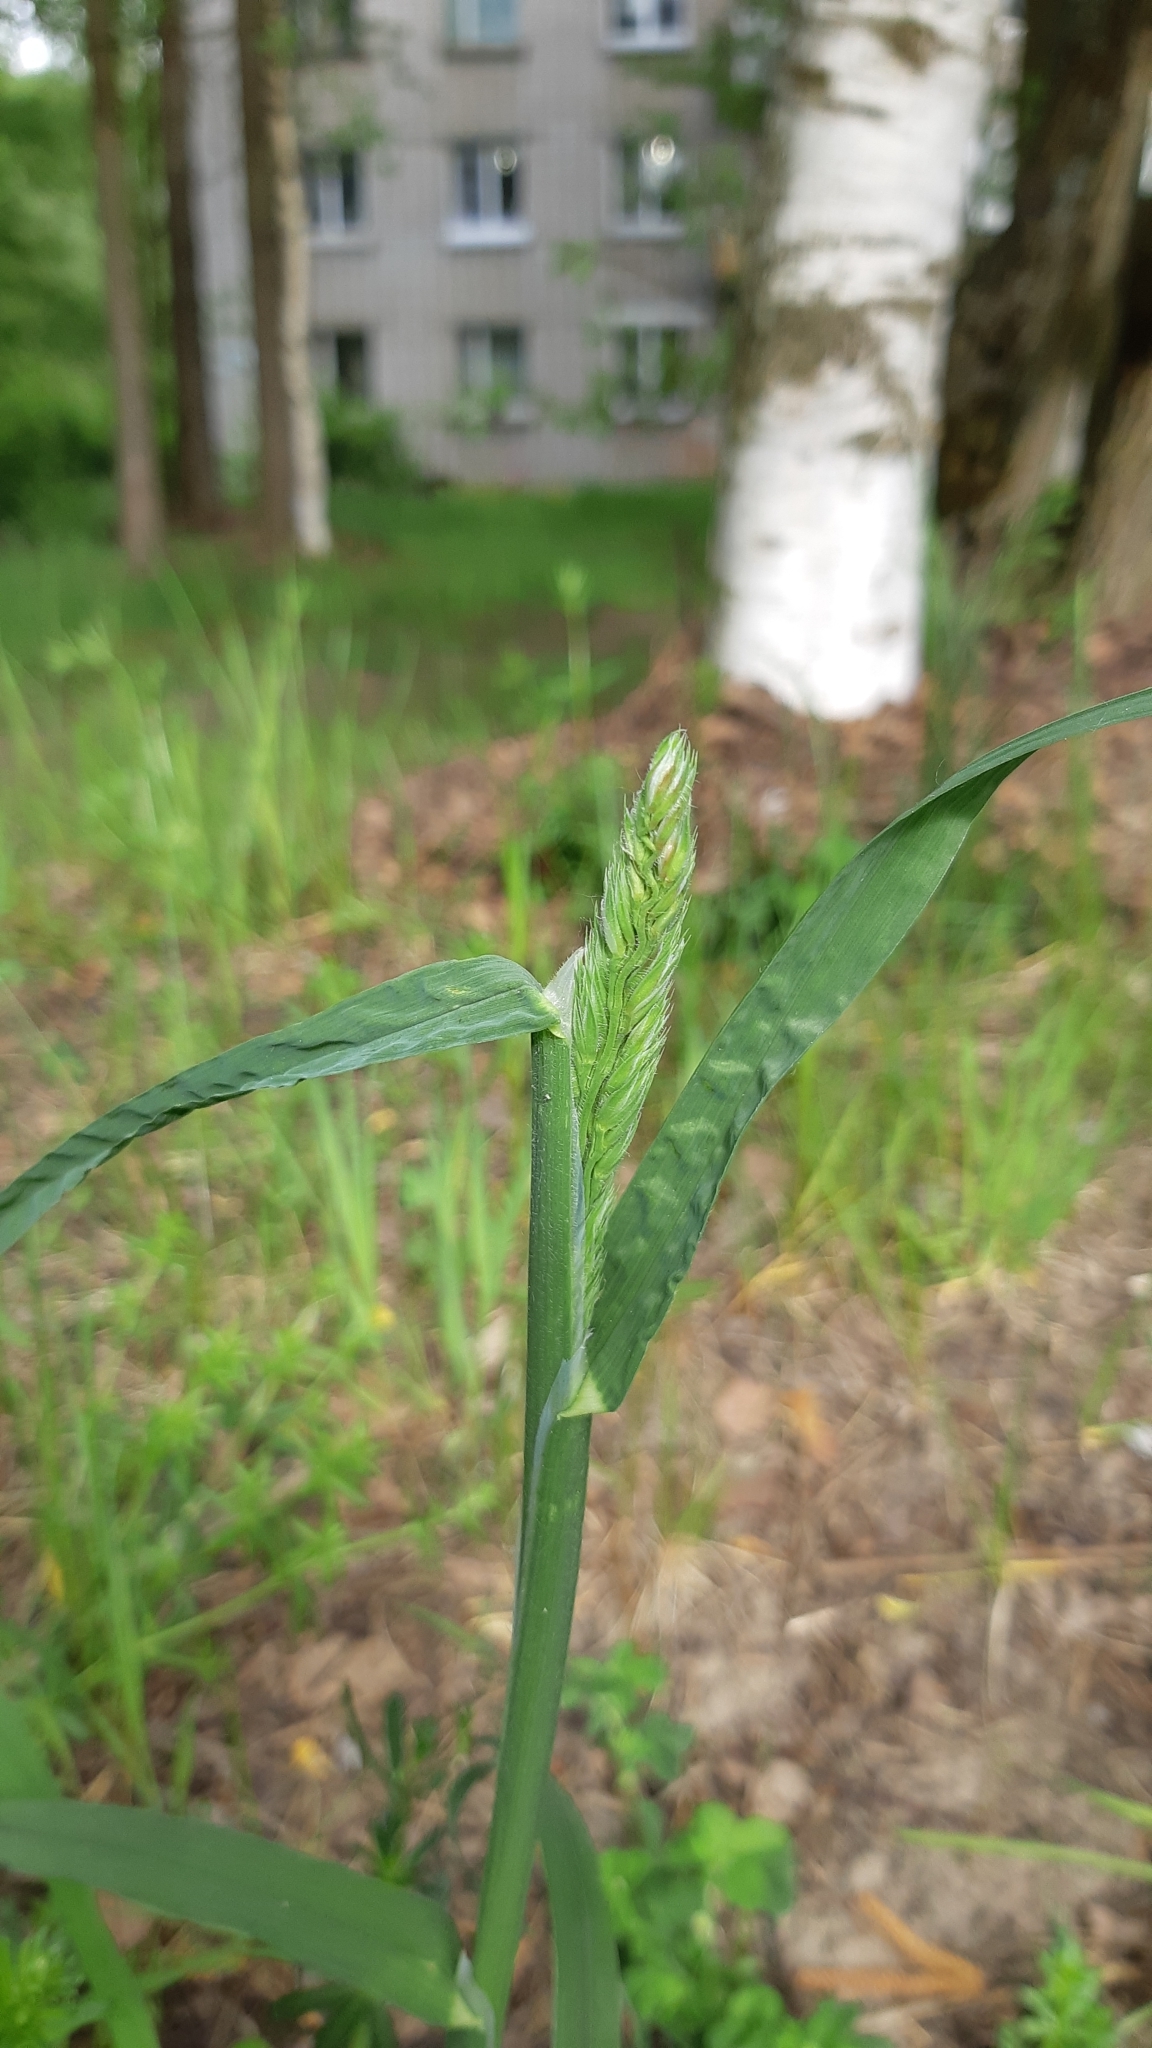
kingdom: Plantae
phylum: Tracheophyta
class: Liliopsida
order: Poales
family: Poaceae
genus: Dactylis
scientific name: Dactylis glomerata
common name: Orchardgrass
